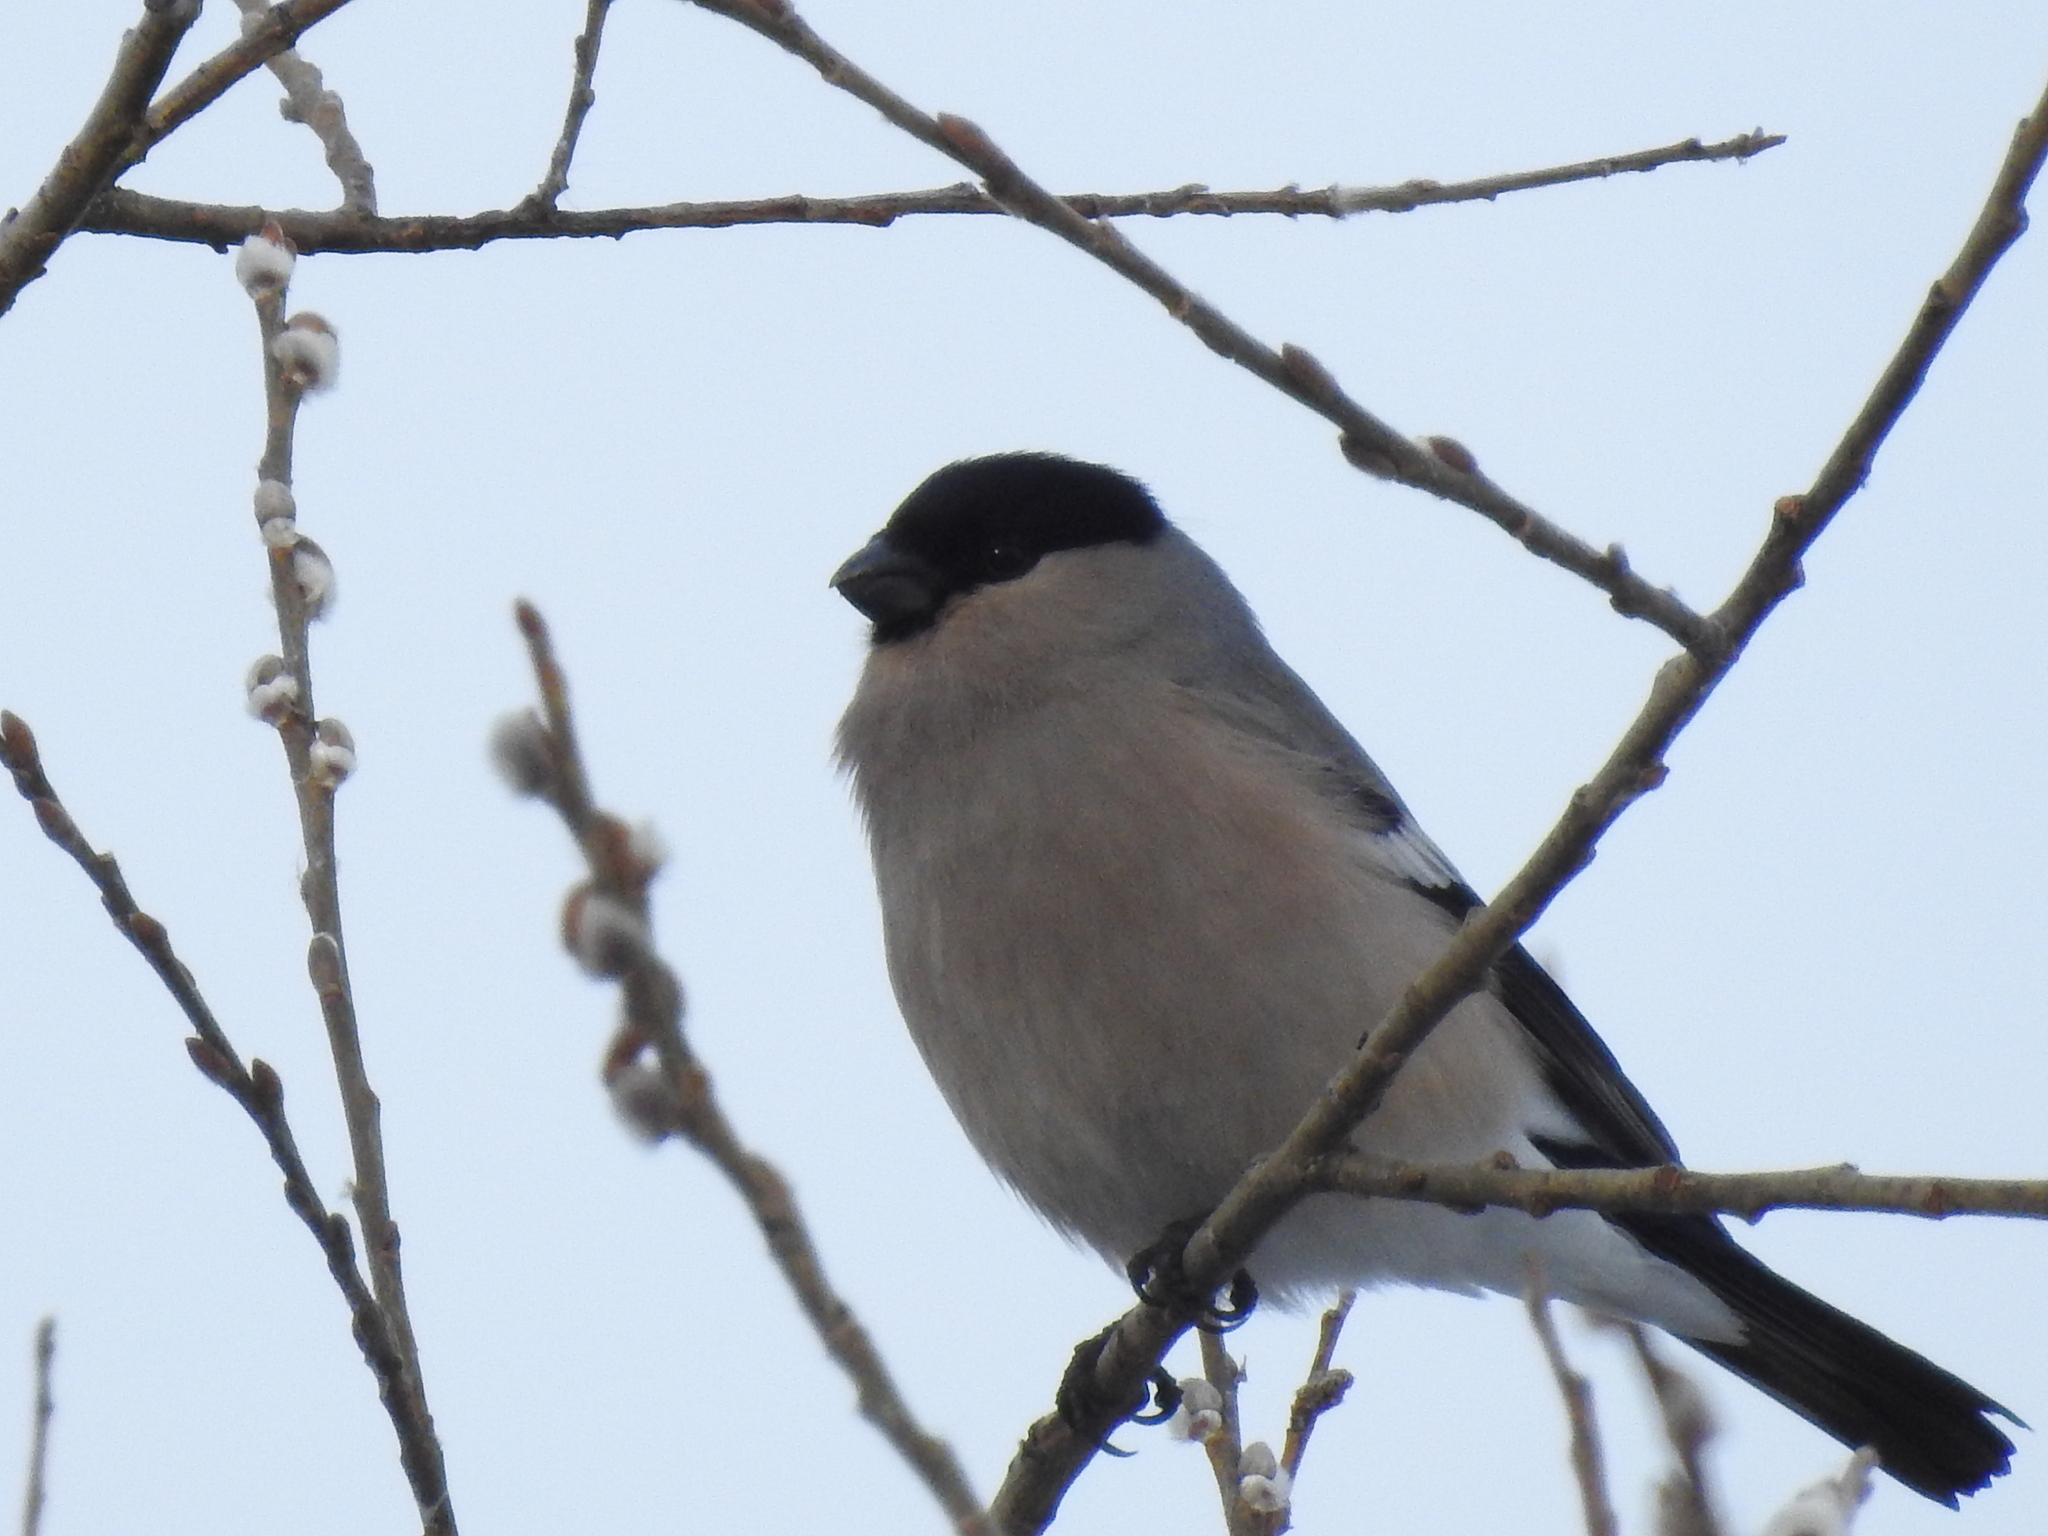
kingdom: Animalia
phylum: Chordata
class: Aves
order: Passeriformes
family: Fringillidae
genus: Pyrrhula
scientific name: Pyrrhula pyrrhula
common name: Eurasian bullfinch
